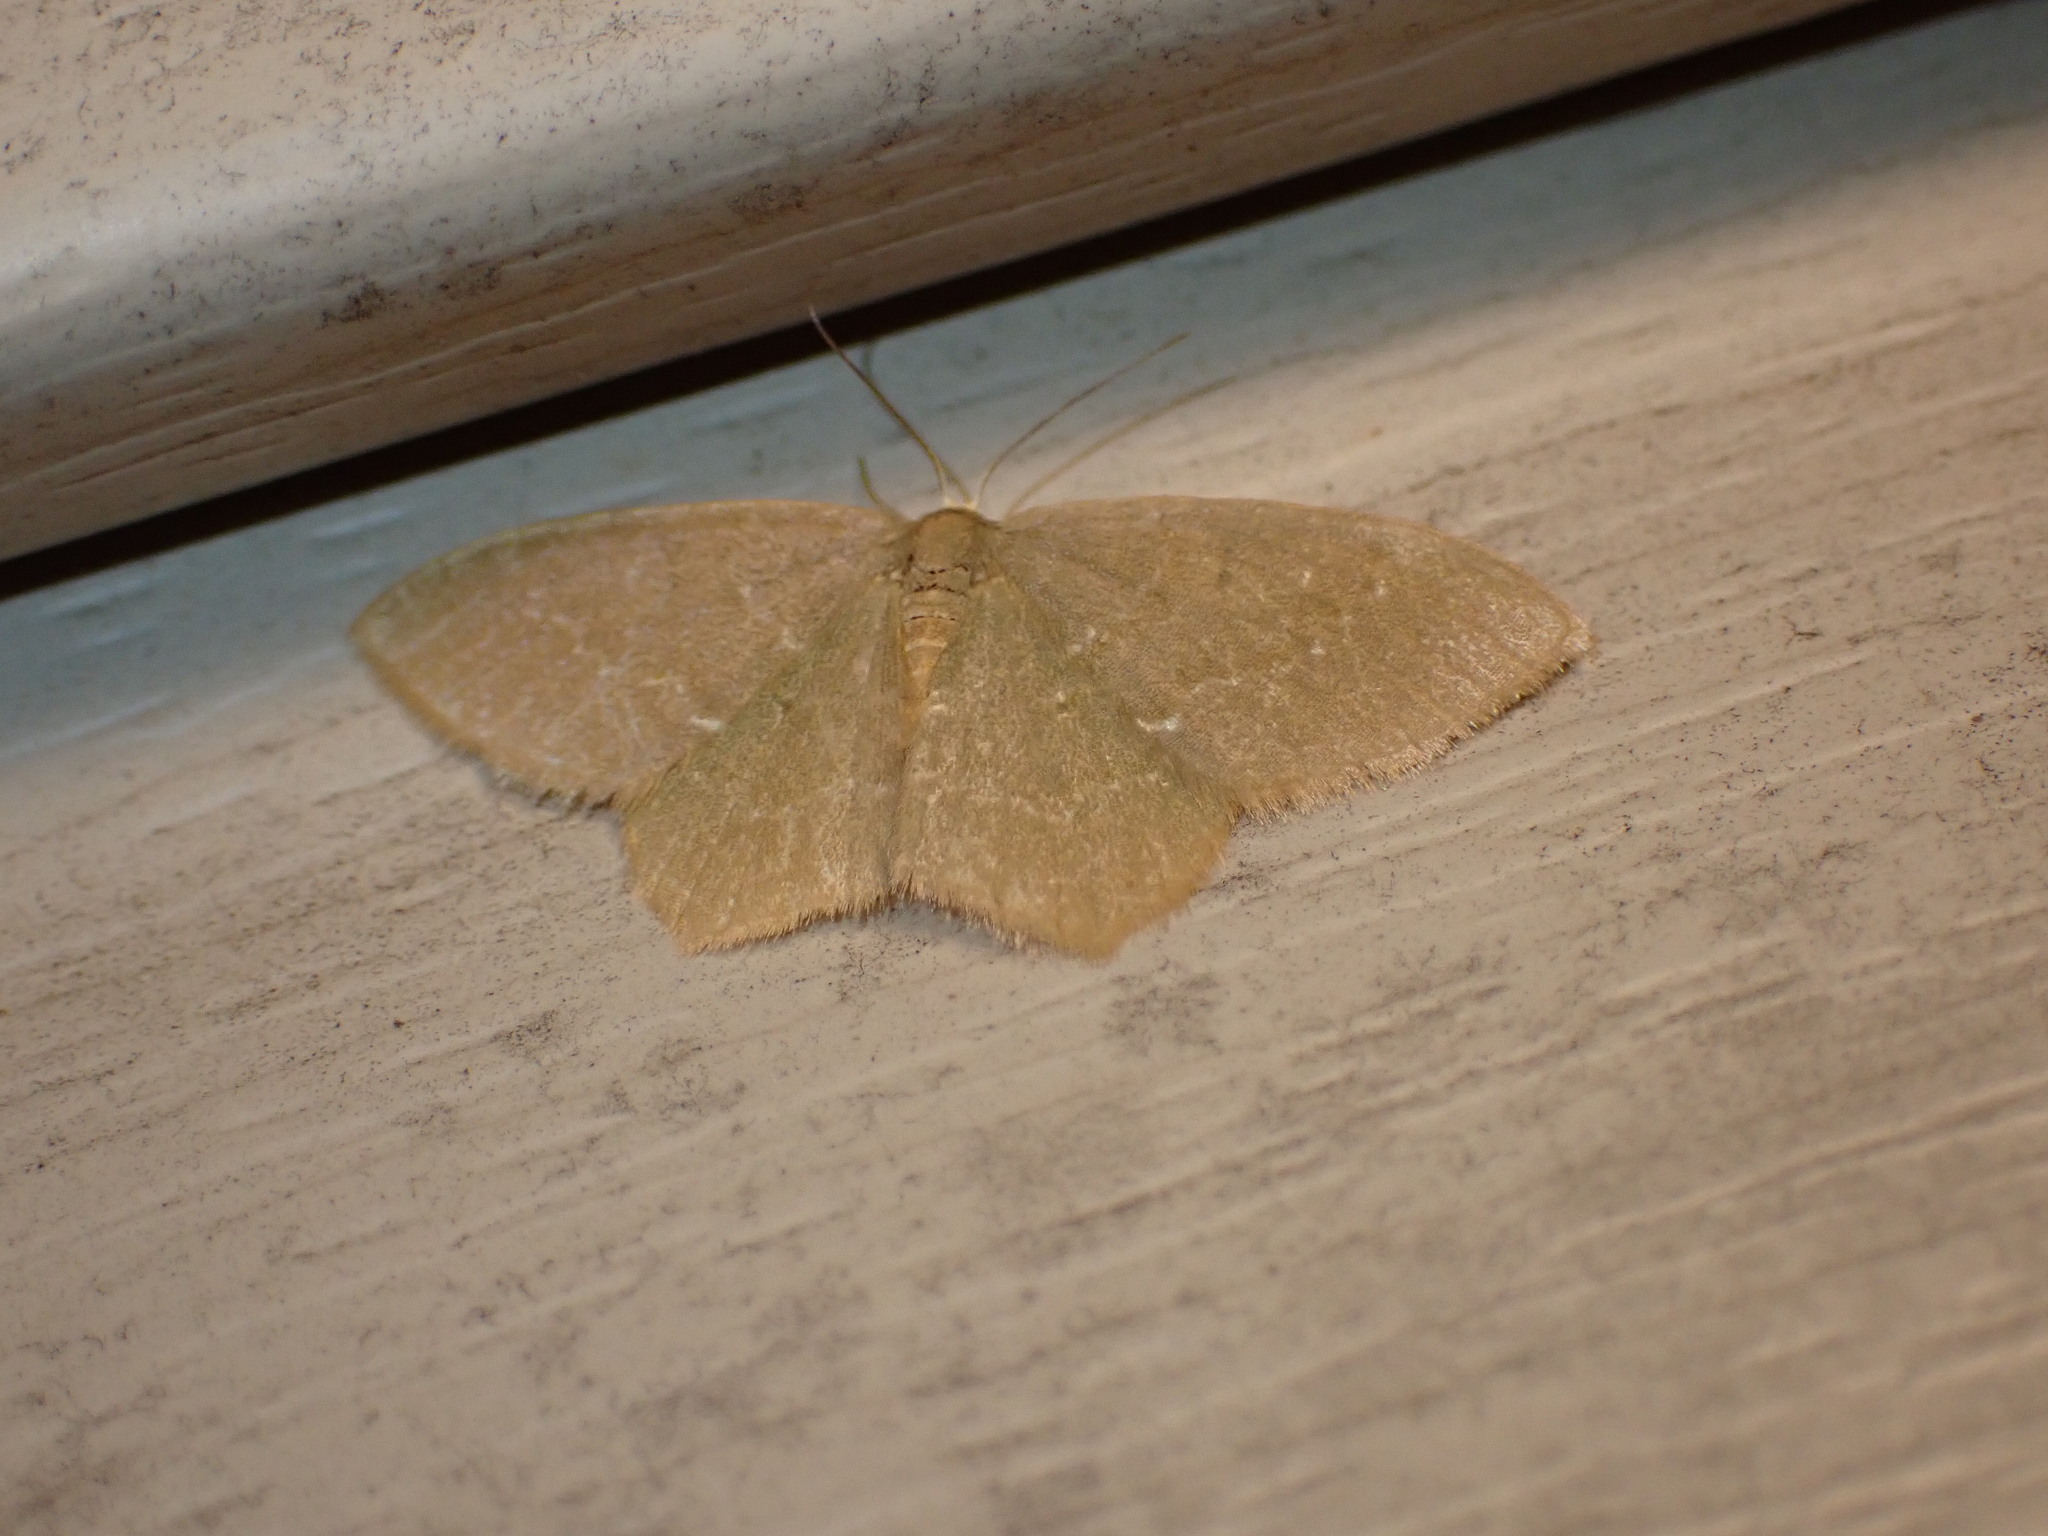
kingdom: Animalia
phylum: Arthropoda
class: Insecta
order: Lepidoptera
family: Geometridae
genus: Thalera
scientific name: Thalera pistasciaria
